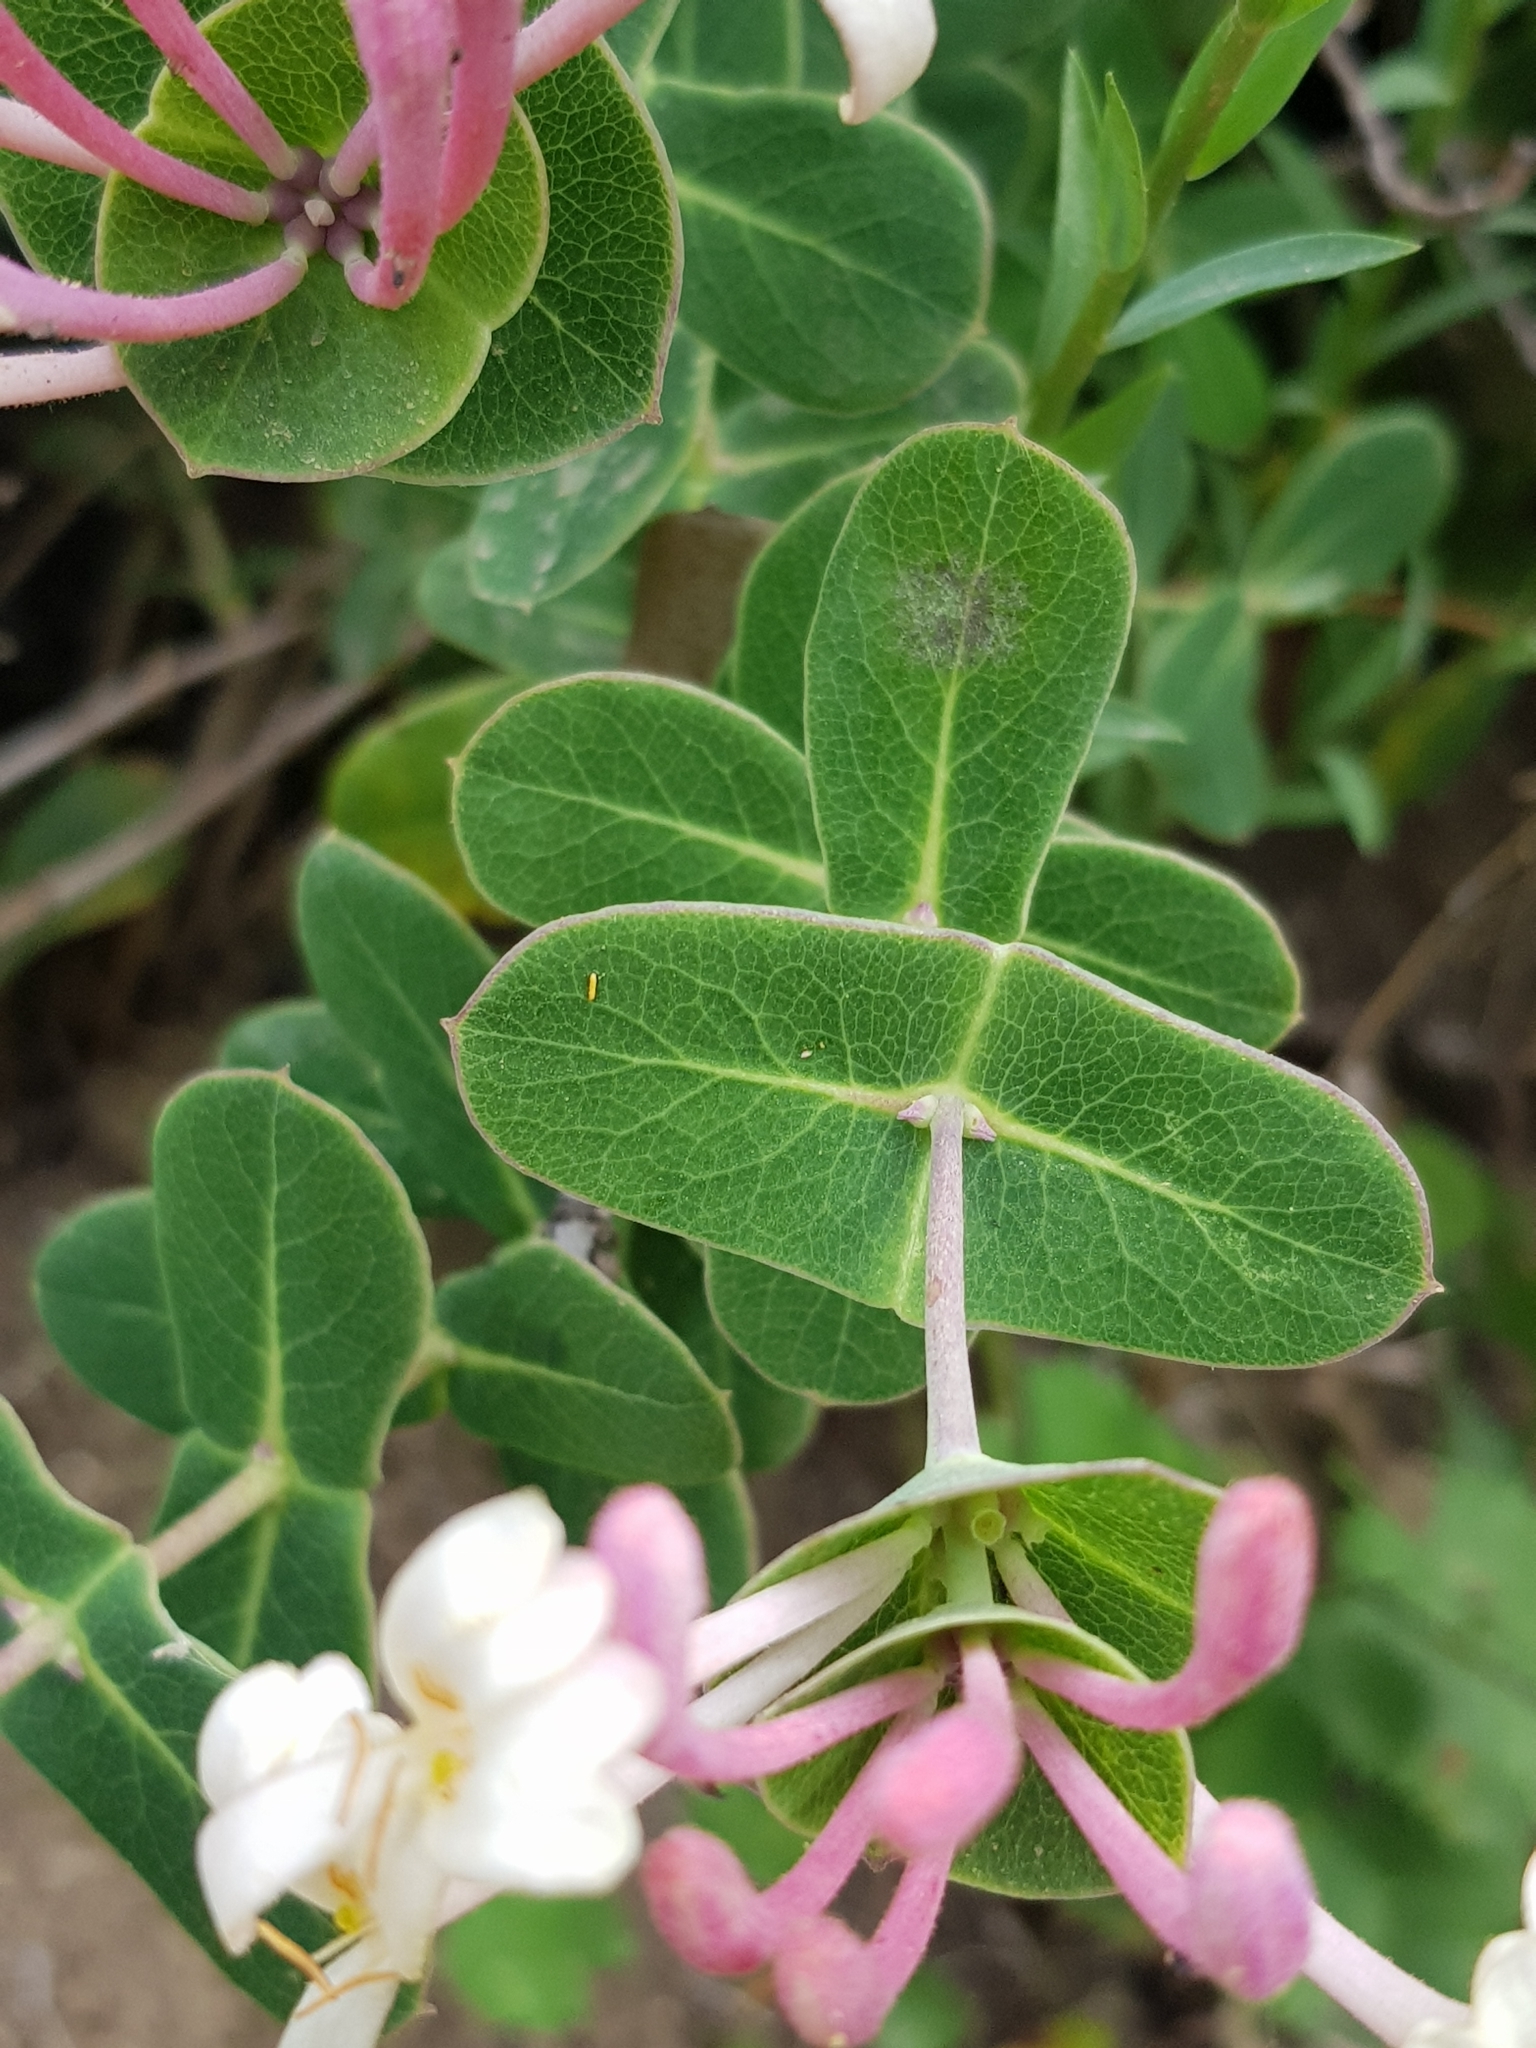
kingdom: Plantae
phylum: Tracheophyta
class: Magnoliopsida
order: Dipsacales
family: Caprifoliaceae
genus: Lonicera
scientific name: Lonicera implexa
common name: Minorca honeysuckle
